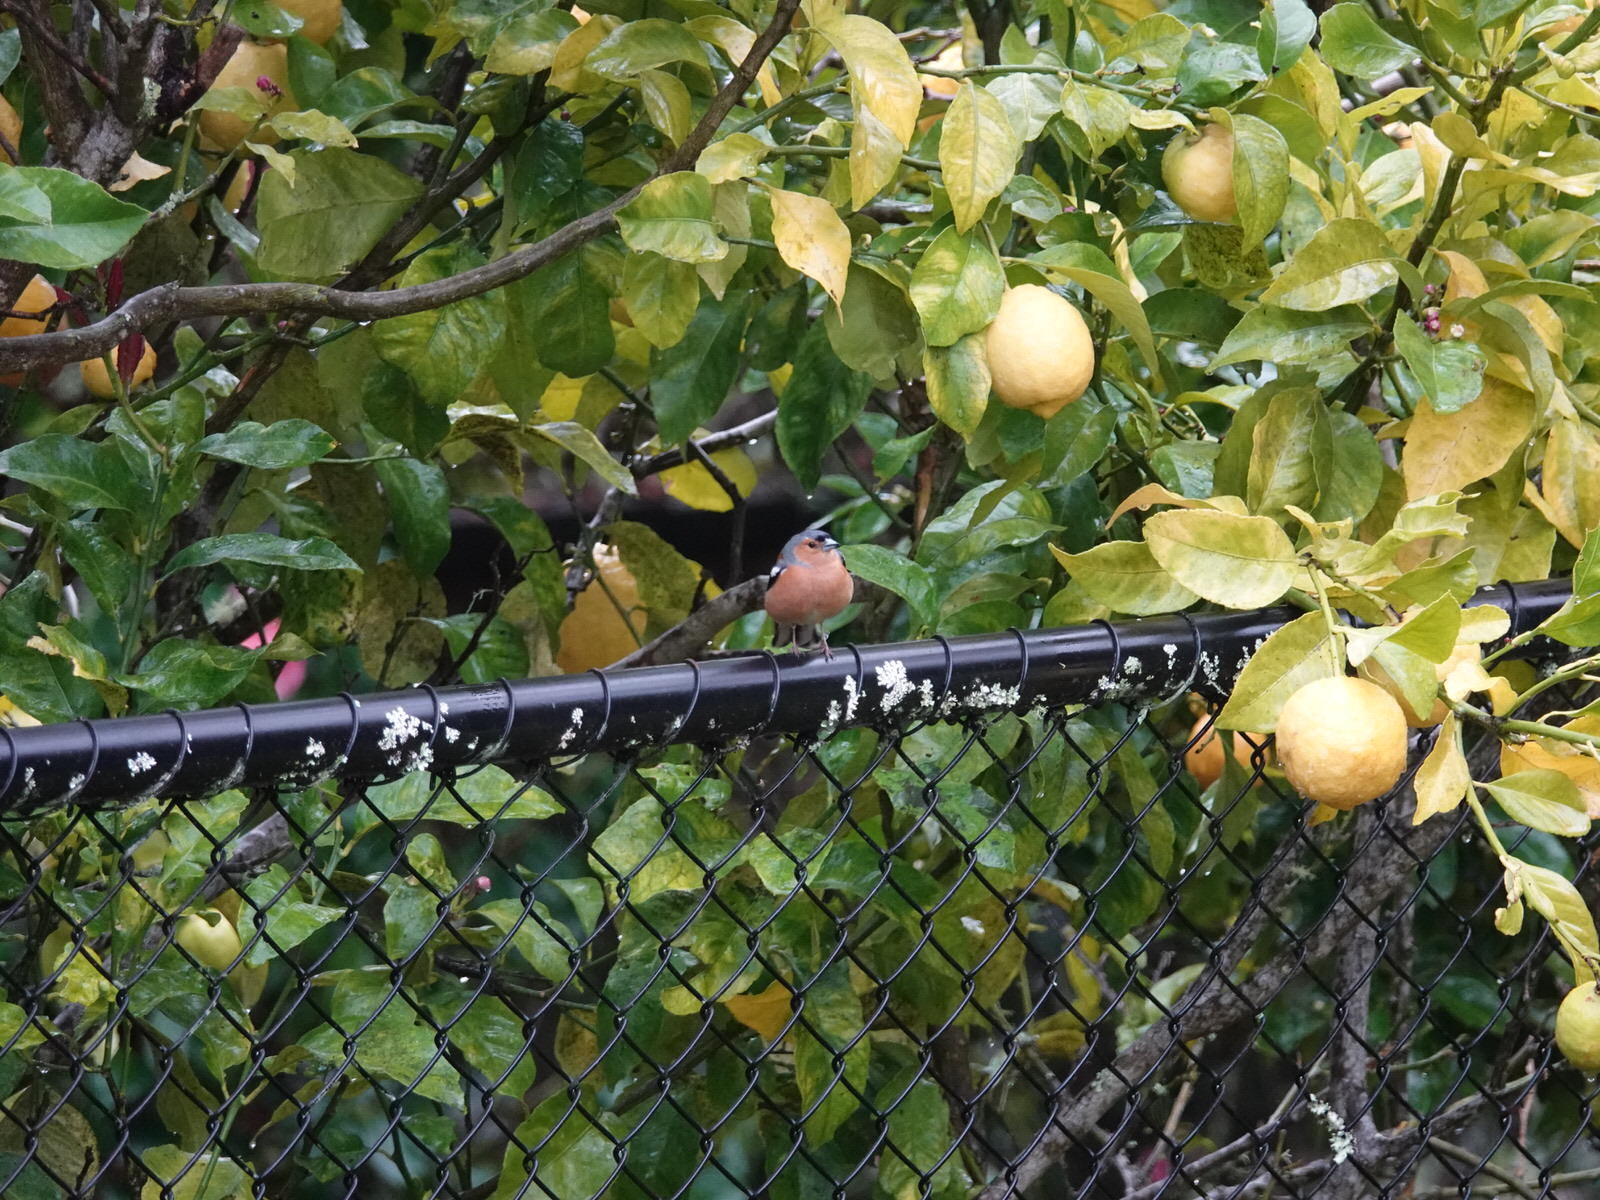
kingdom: Animalia
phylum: Chordata
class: Aves
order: Passeriformes
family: Fringillidae
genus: Fringilla
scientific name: Fringilla coelebs
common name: Common chaffinch
